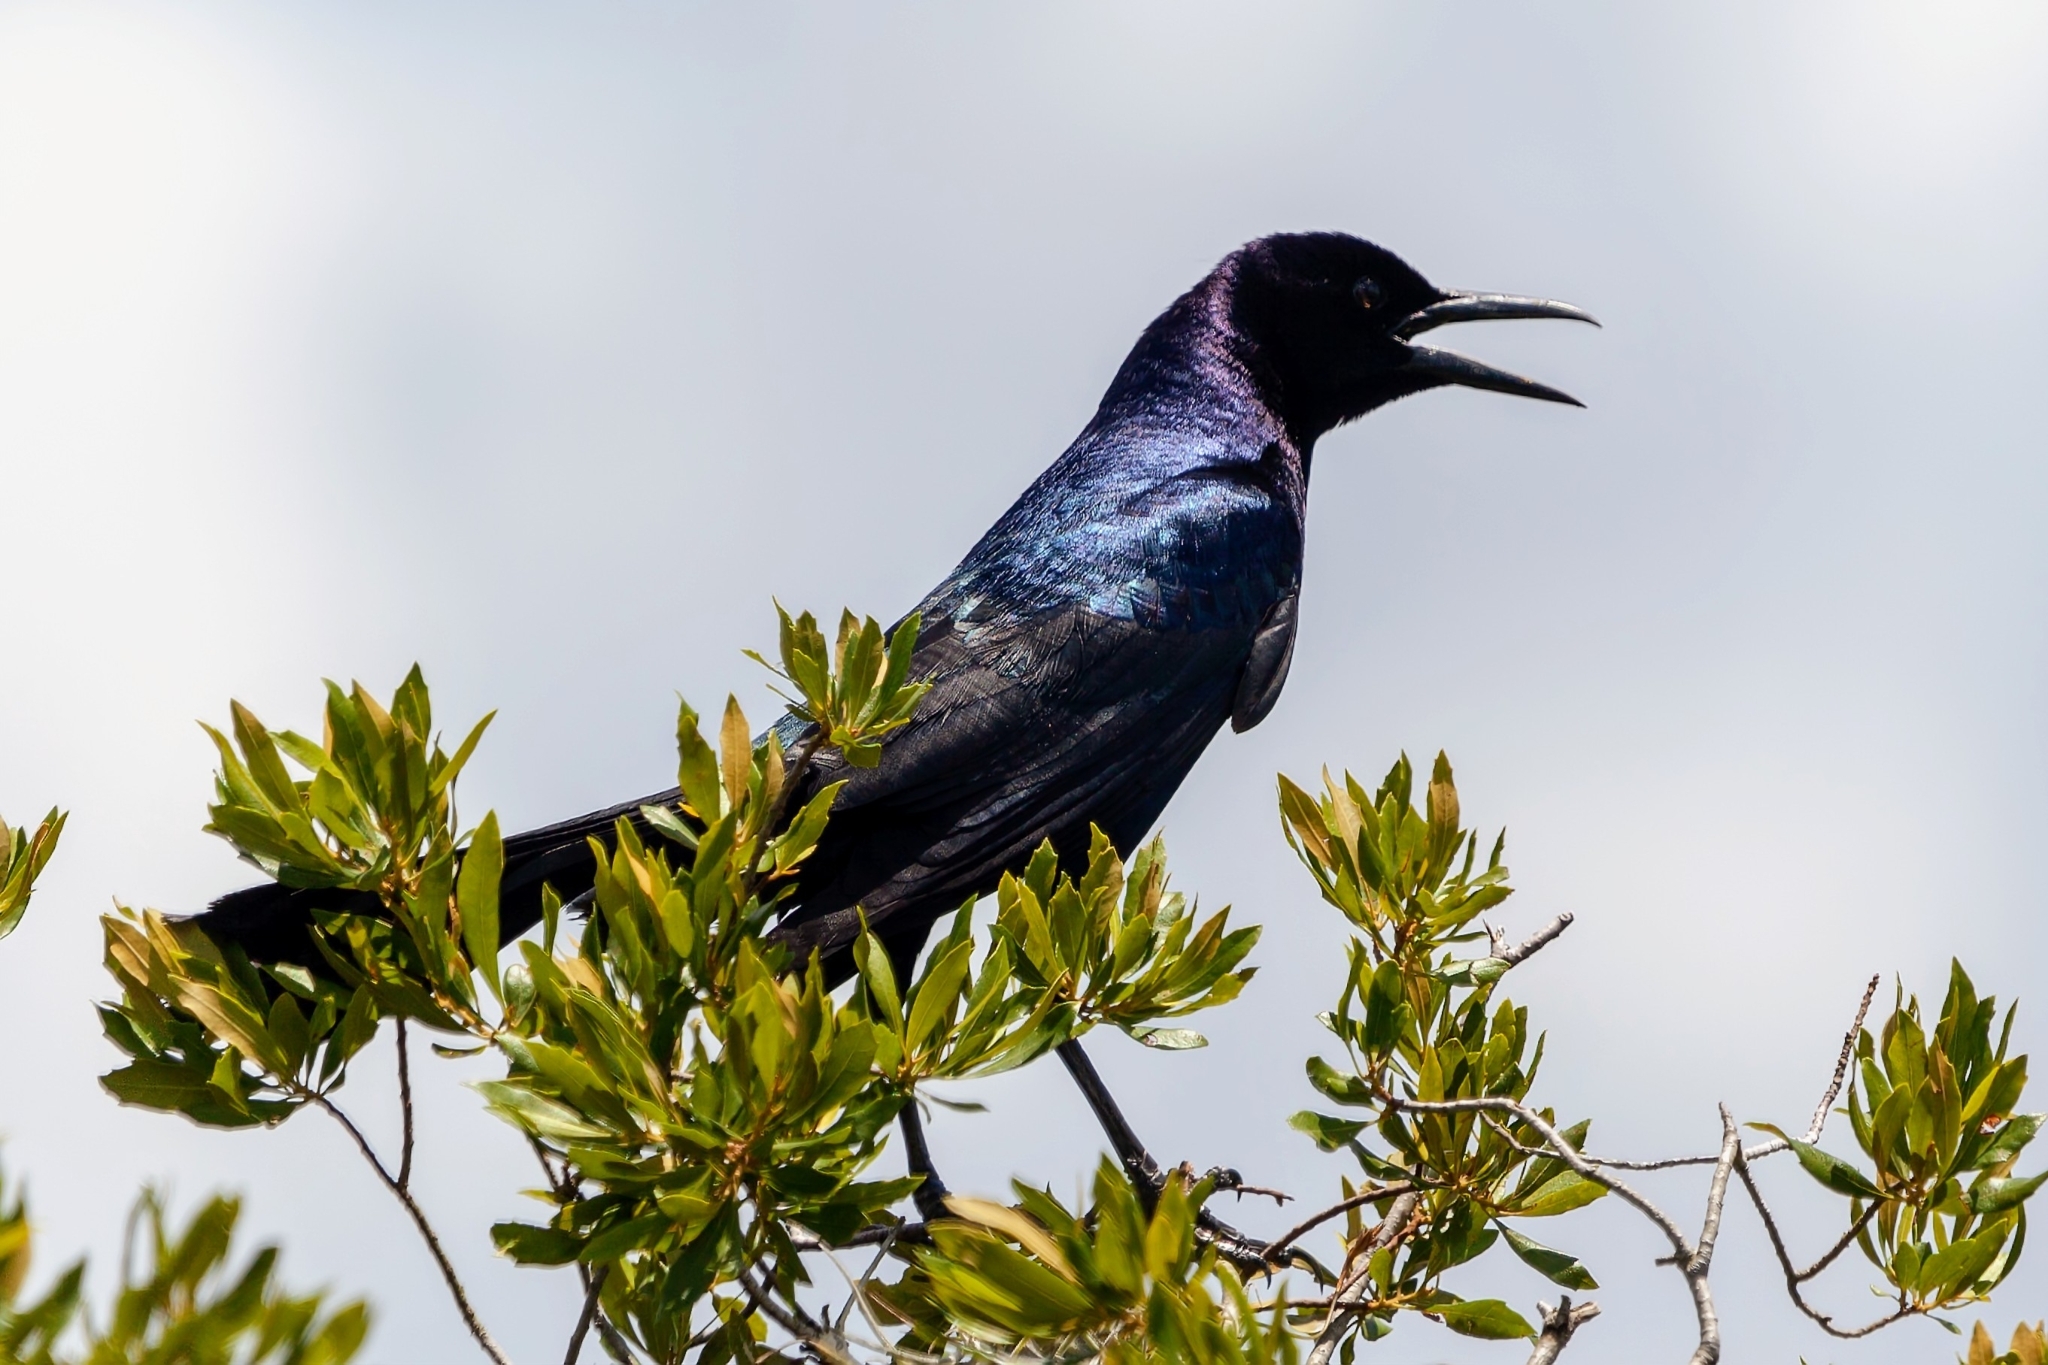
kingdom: Animalia
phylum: Chordata
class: Aves
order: Passeriformes
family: Icteridae
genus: Quiscalus
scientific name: Quiscalus major
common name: Boat-tailed grackle
